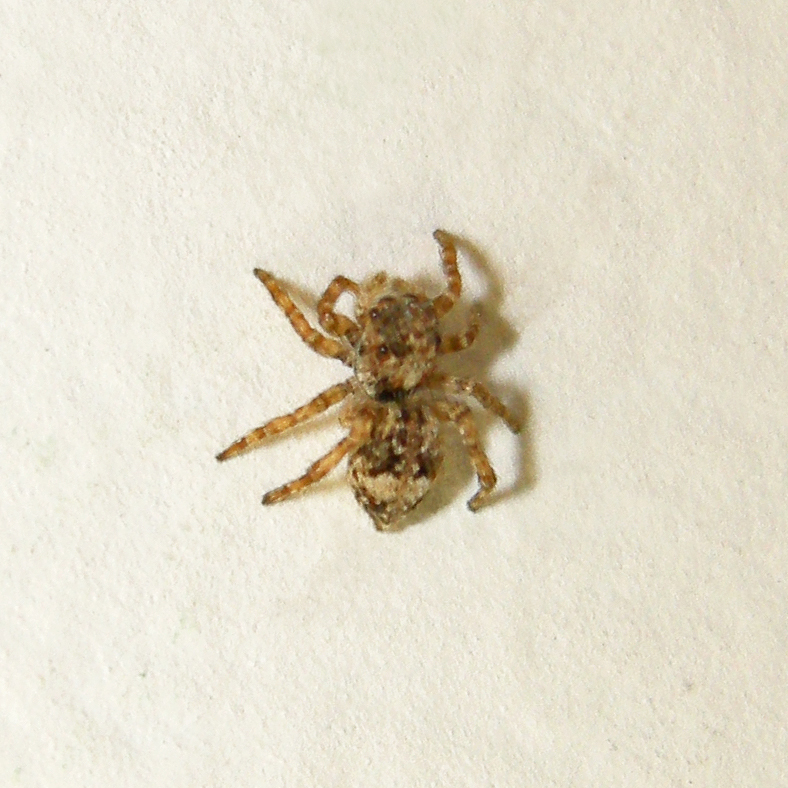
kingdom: Animalia
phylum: Arthropoda
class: Arachnida
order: Araneae
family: Salticidae
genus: Attulus
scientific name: Attulus fasciger
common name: Asiatic wall jumping spider
